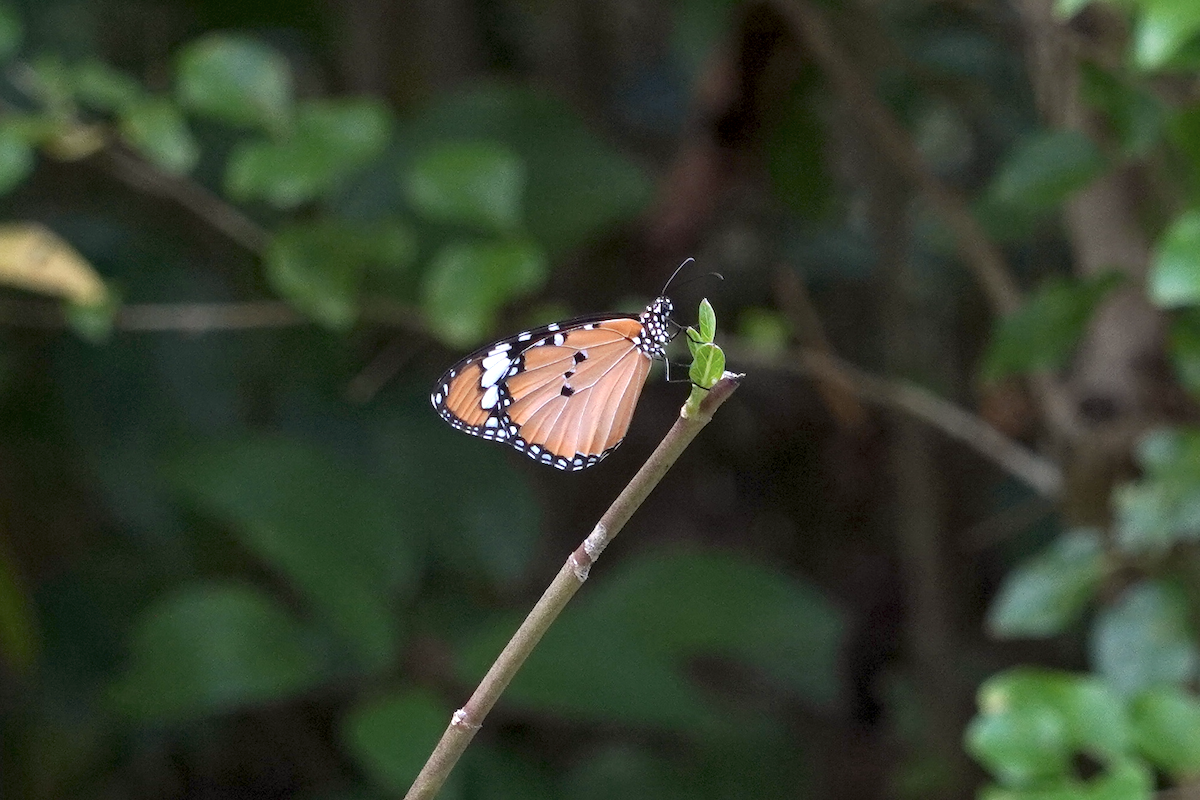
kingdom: Animalia
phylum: Arthropoda
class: Insecta
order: Lepidoptera
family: Nymphalidae
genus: Danaus
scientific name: Danaus chrysippus
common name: Plain tiger
